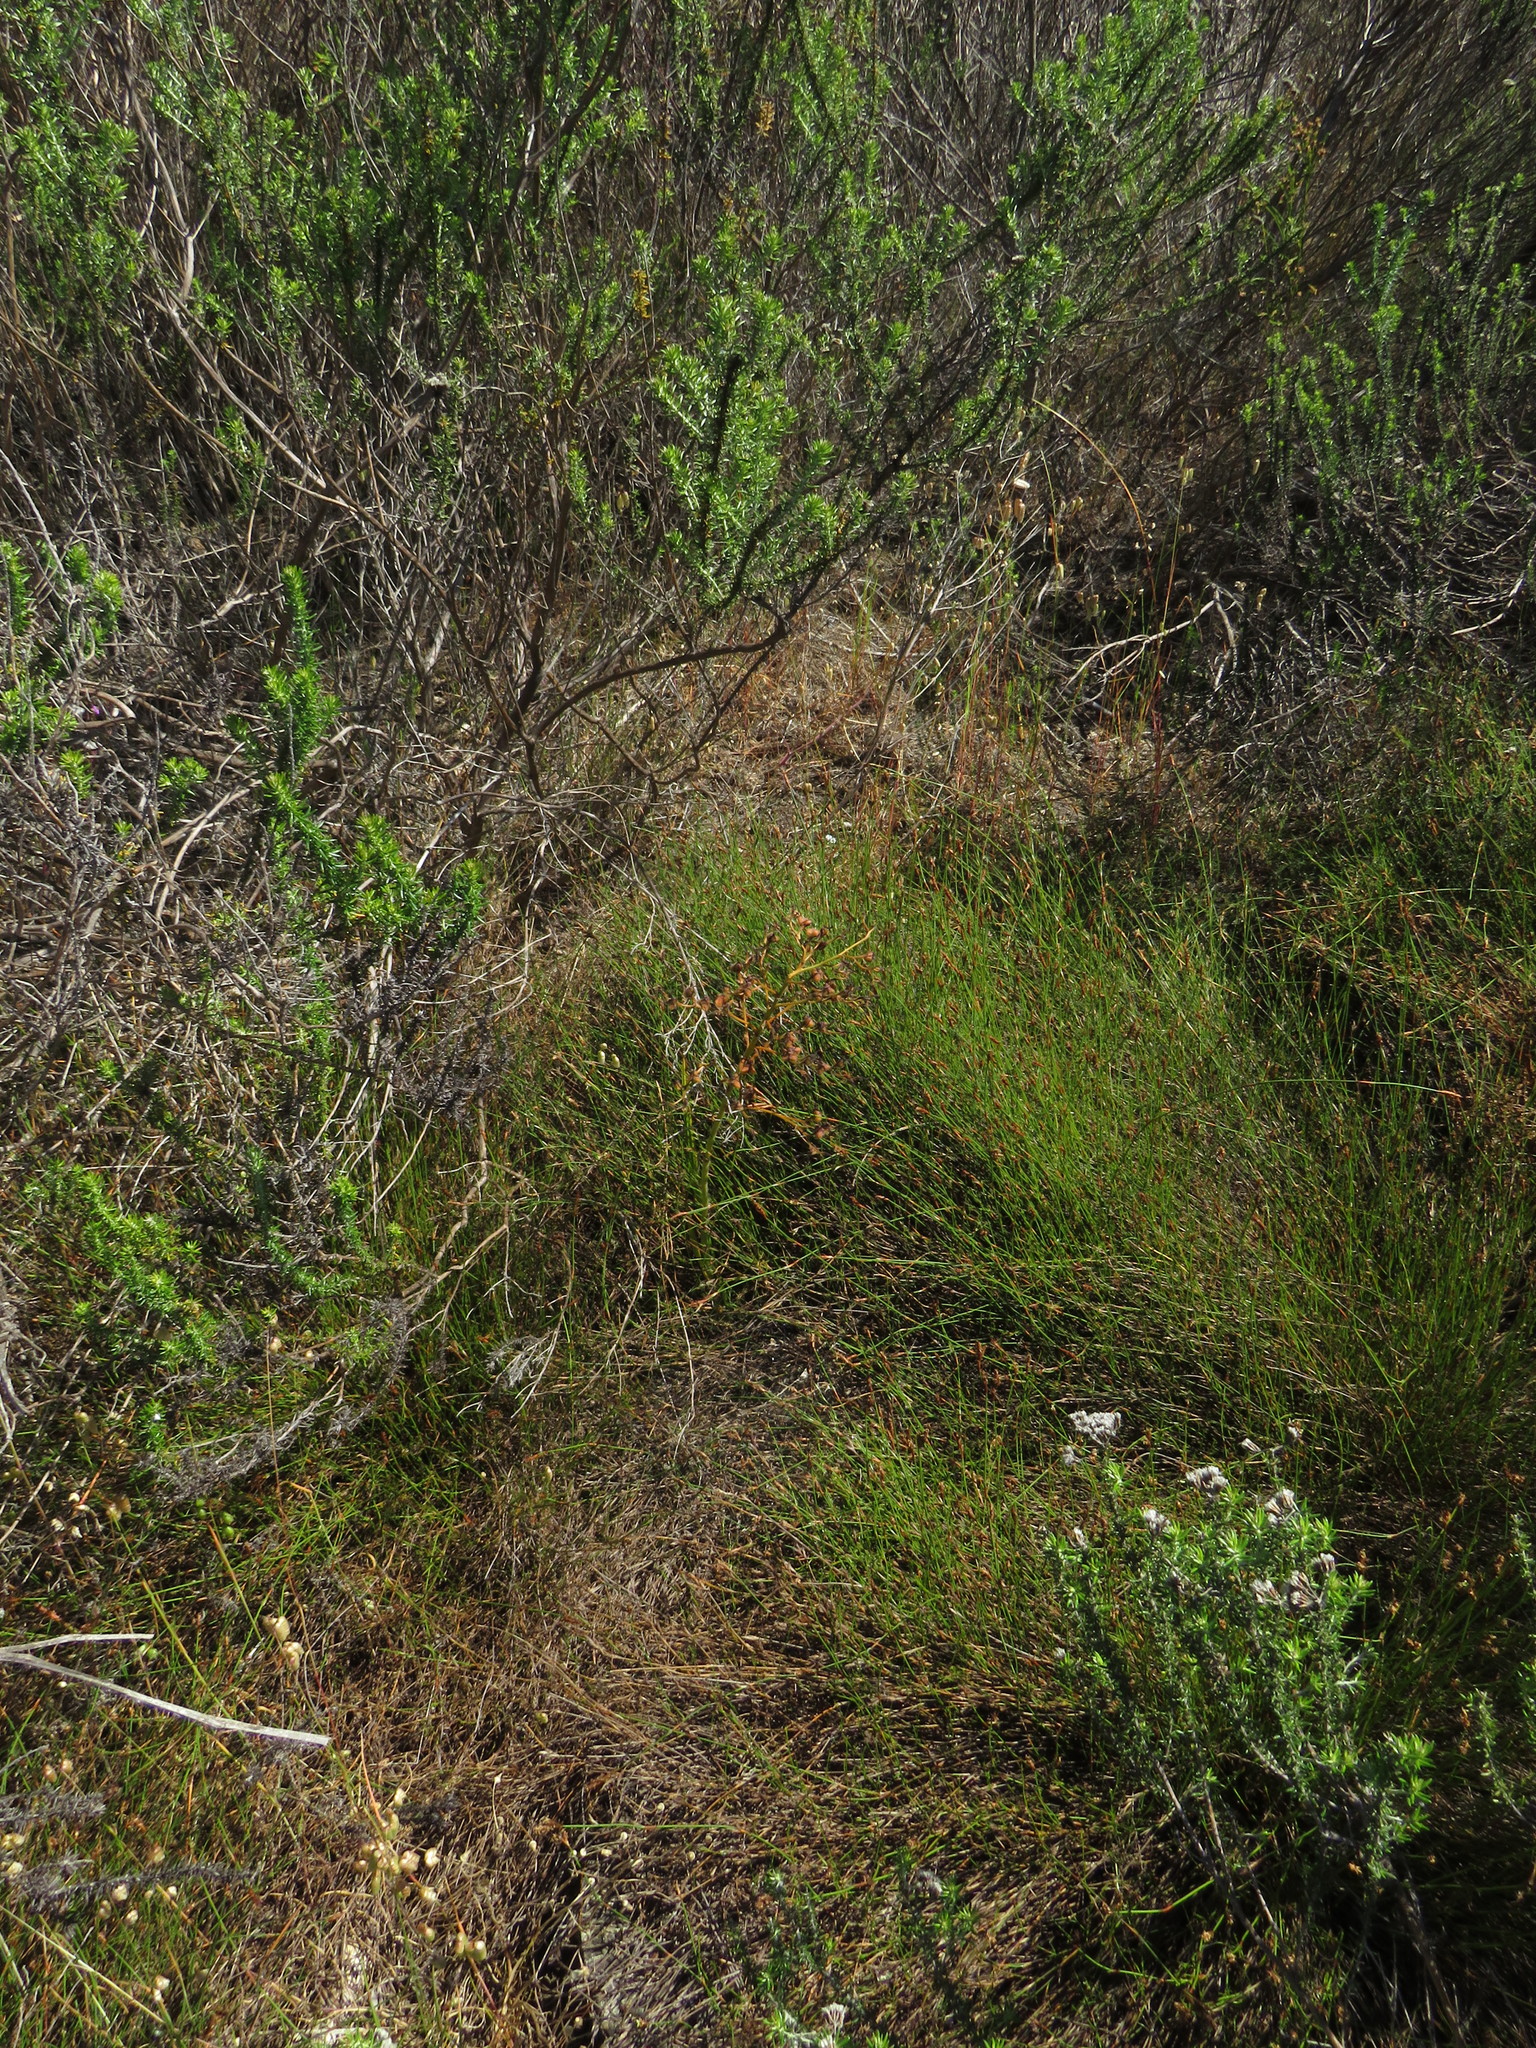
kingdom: Plantae
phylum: Tracheophyta
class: Liliopsida
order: Commelinales
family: Haemodoraceae
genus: Wachendorfia
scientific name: Wachendorfia paniculata
